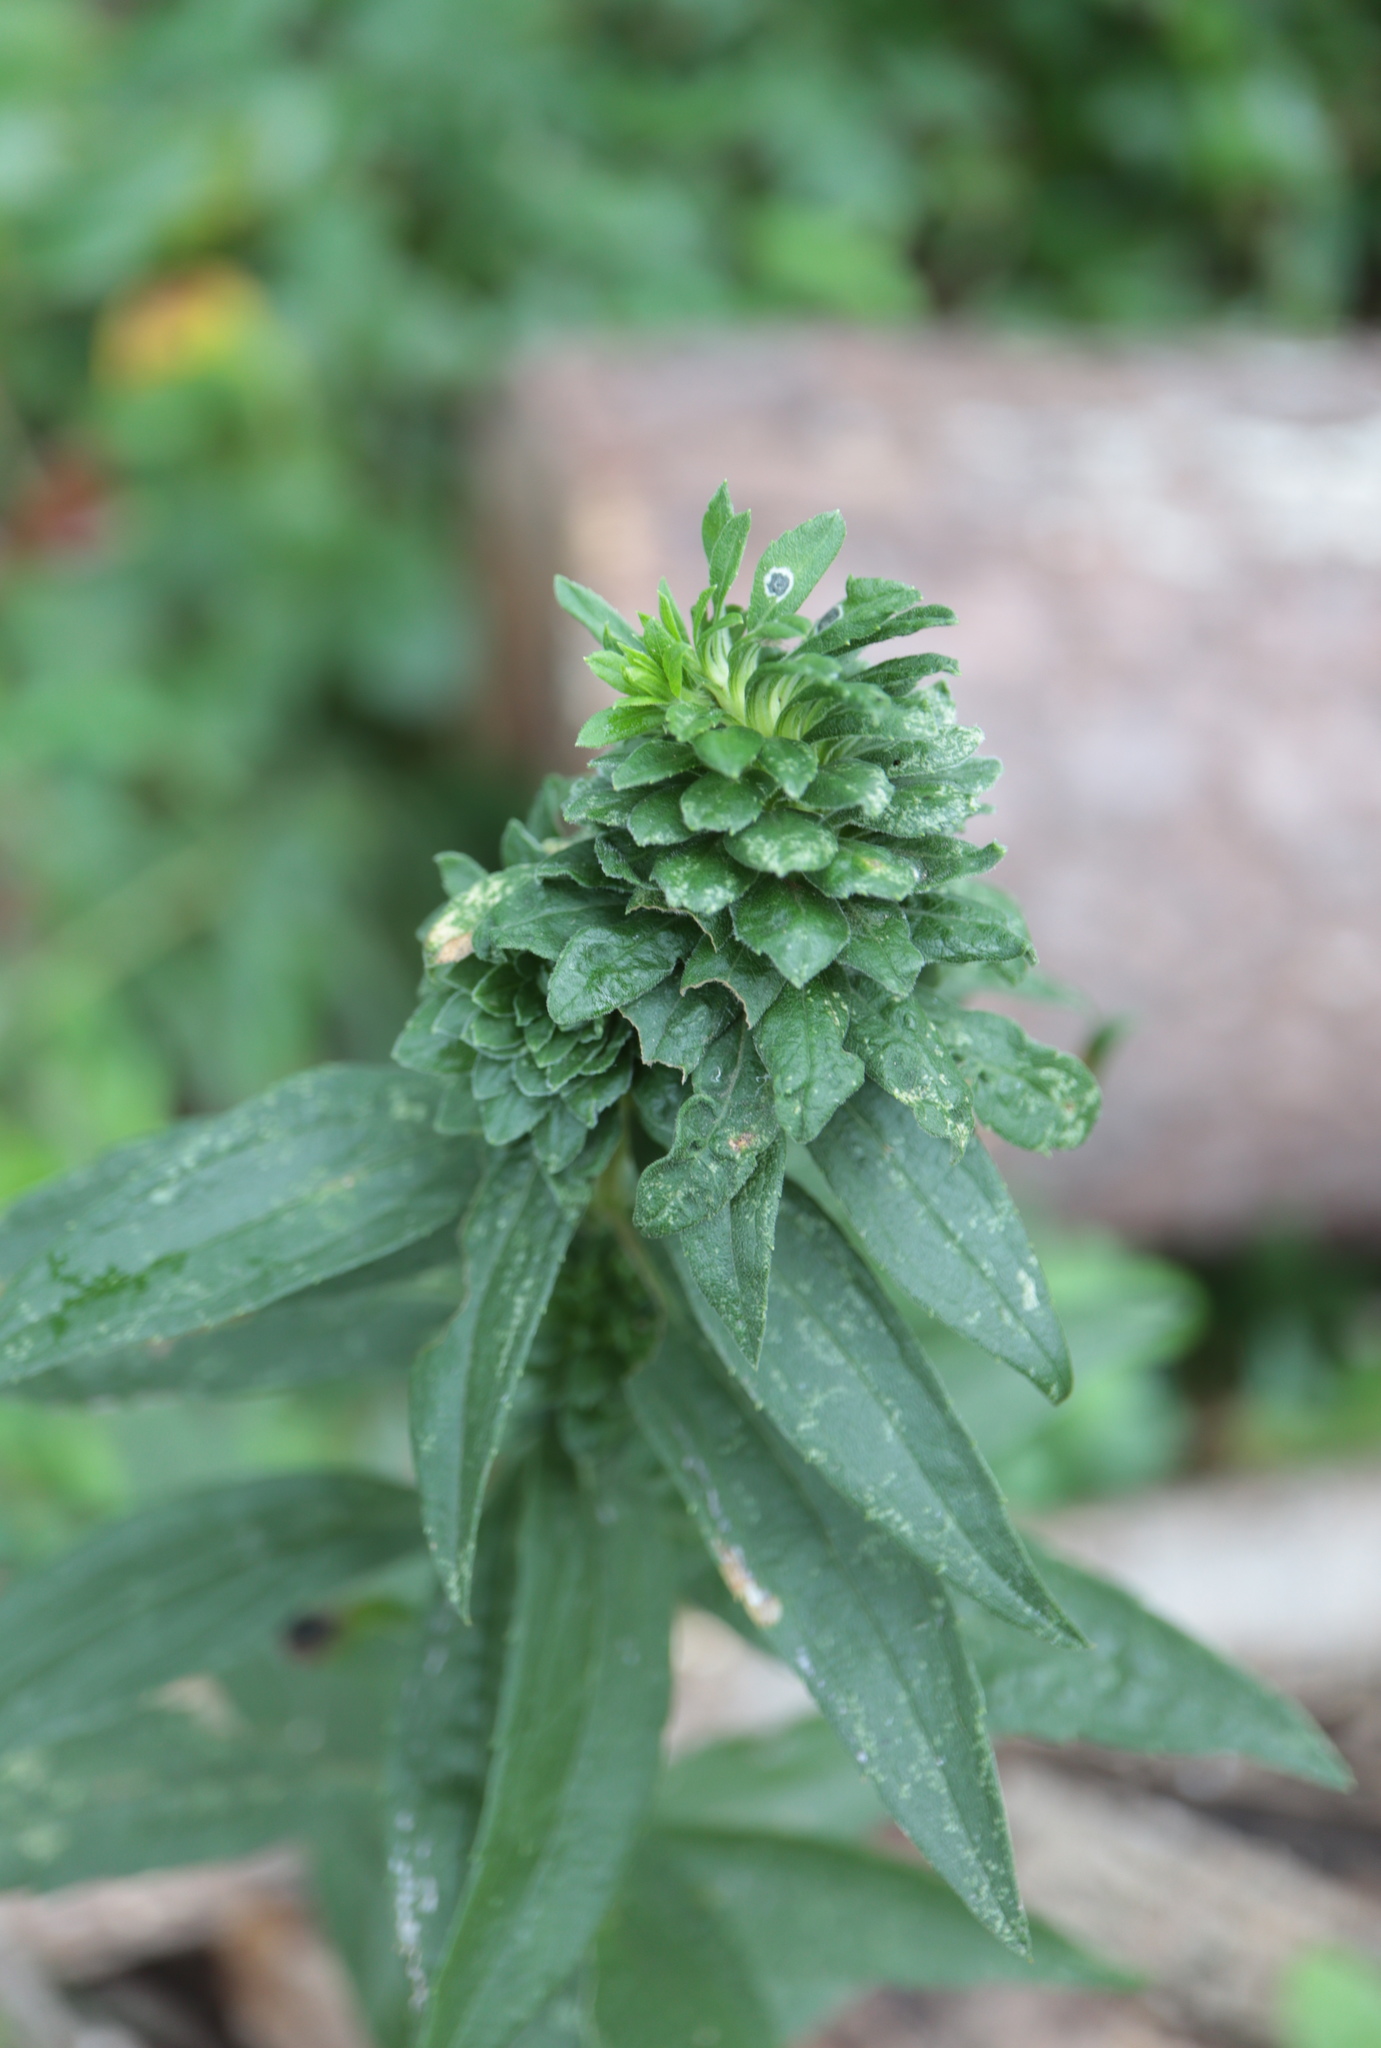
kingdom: Plantae
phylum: Tracheophyta
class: Magnoliopsida
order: Asterales
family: Asteraceae
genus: Solidago
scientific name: Solidago altissima
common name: Late goldenrod
